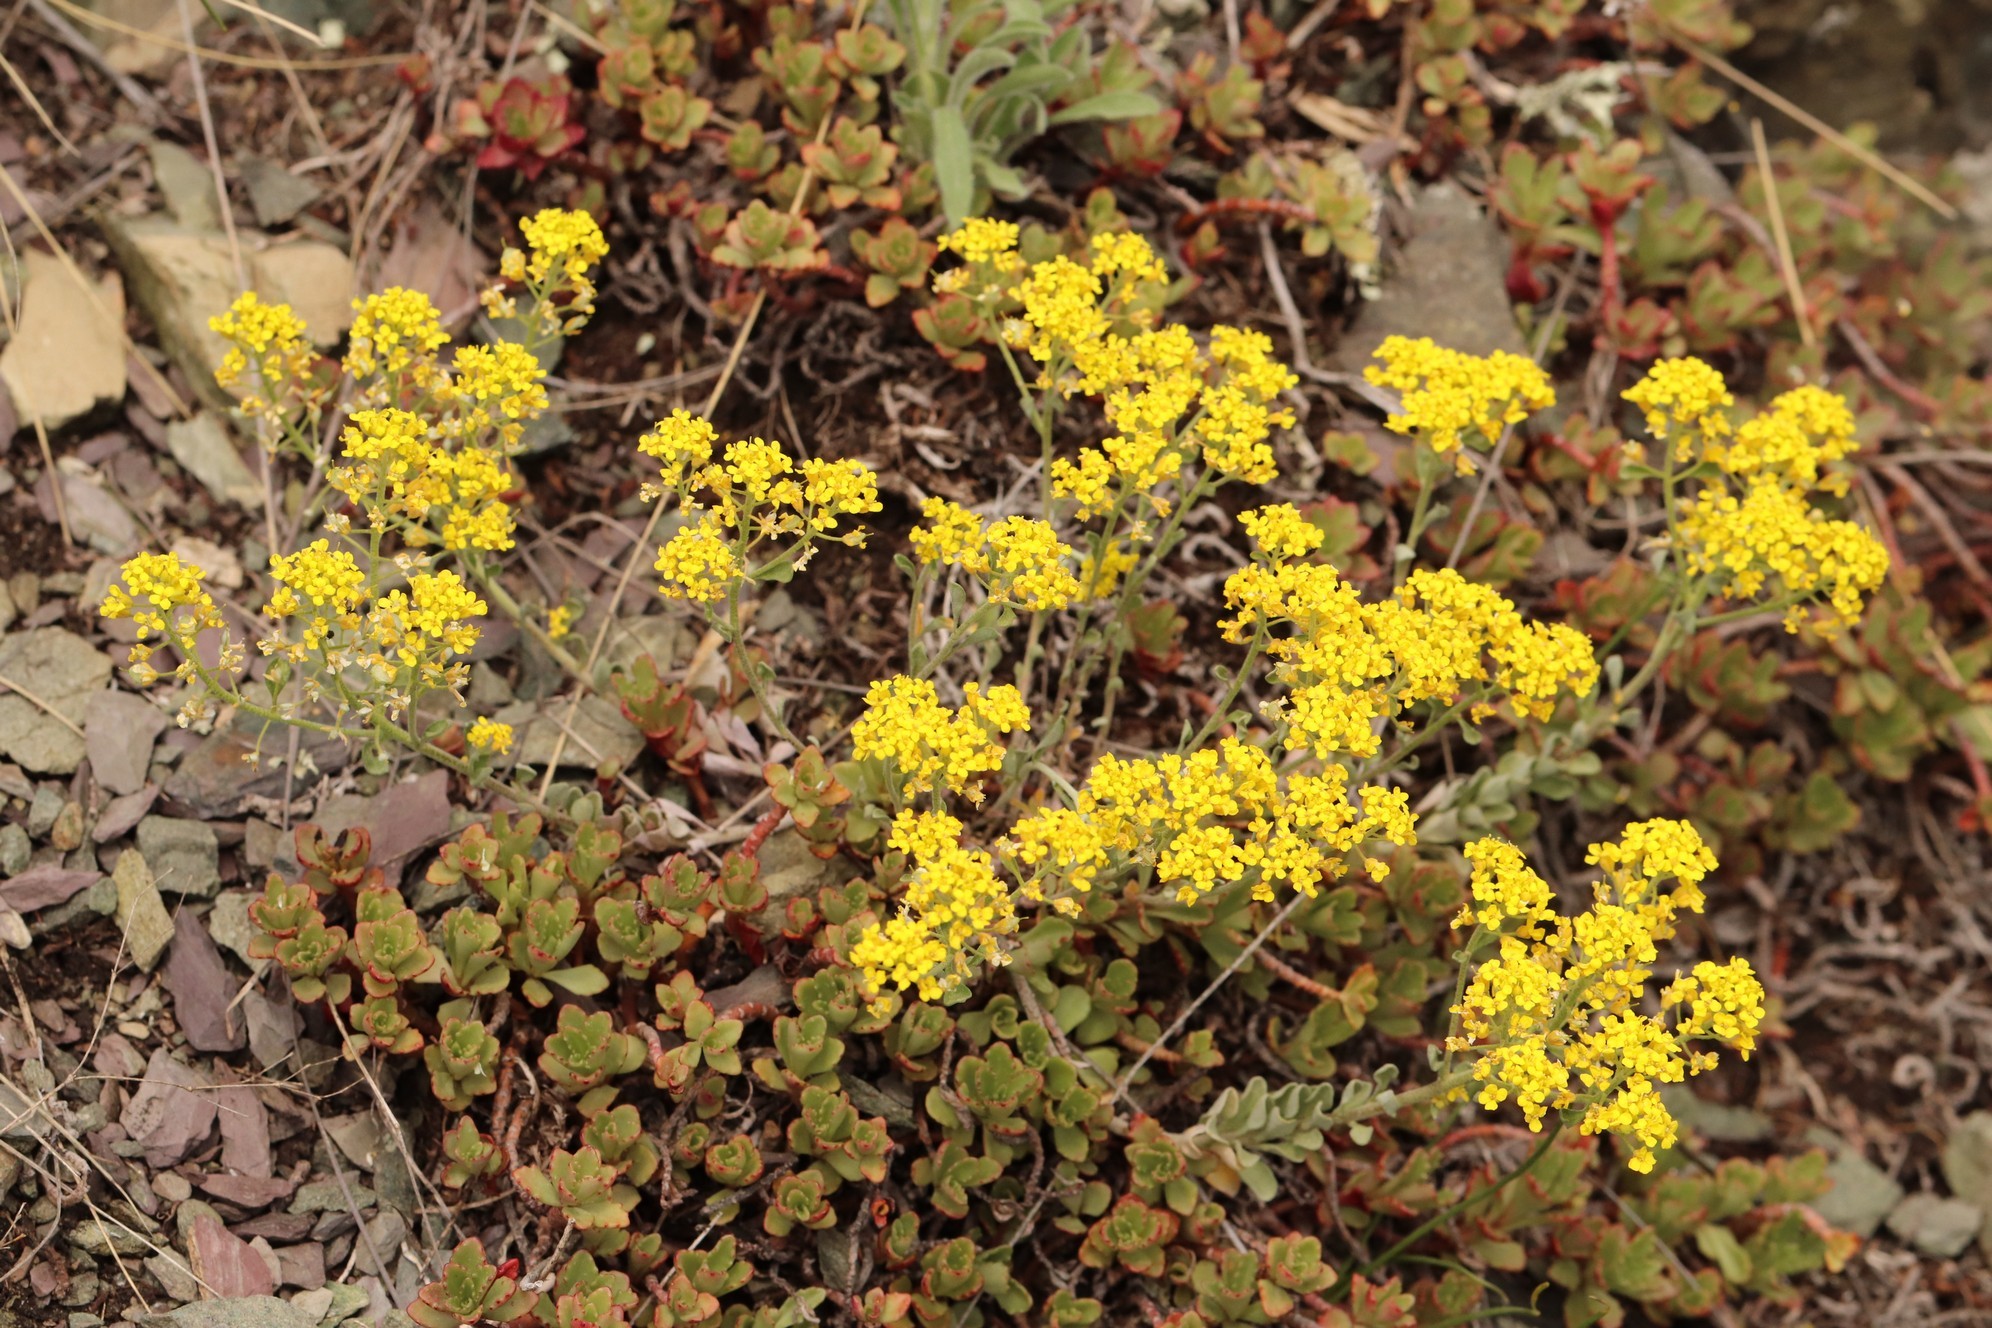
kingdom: Plantae
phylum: Tracheophyta
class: Magnoliopsida
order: Brassicales
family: Brassicaceae
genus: Odontarrhena
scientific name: Odontarrhena obovata
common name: American alyssum
